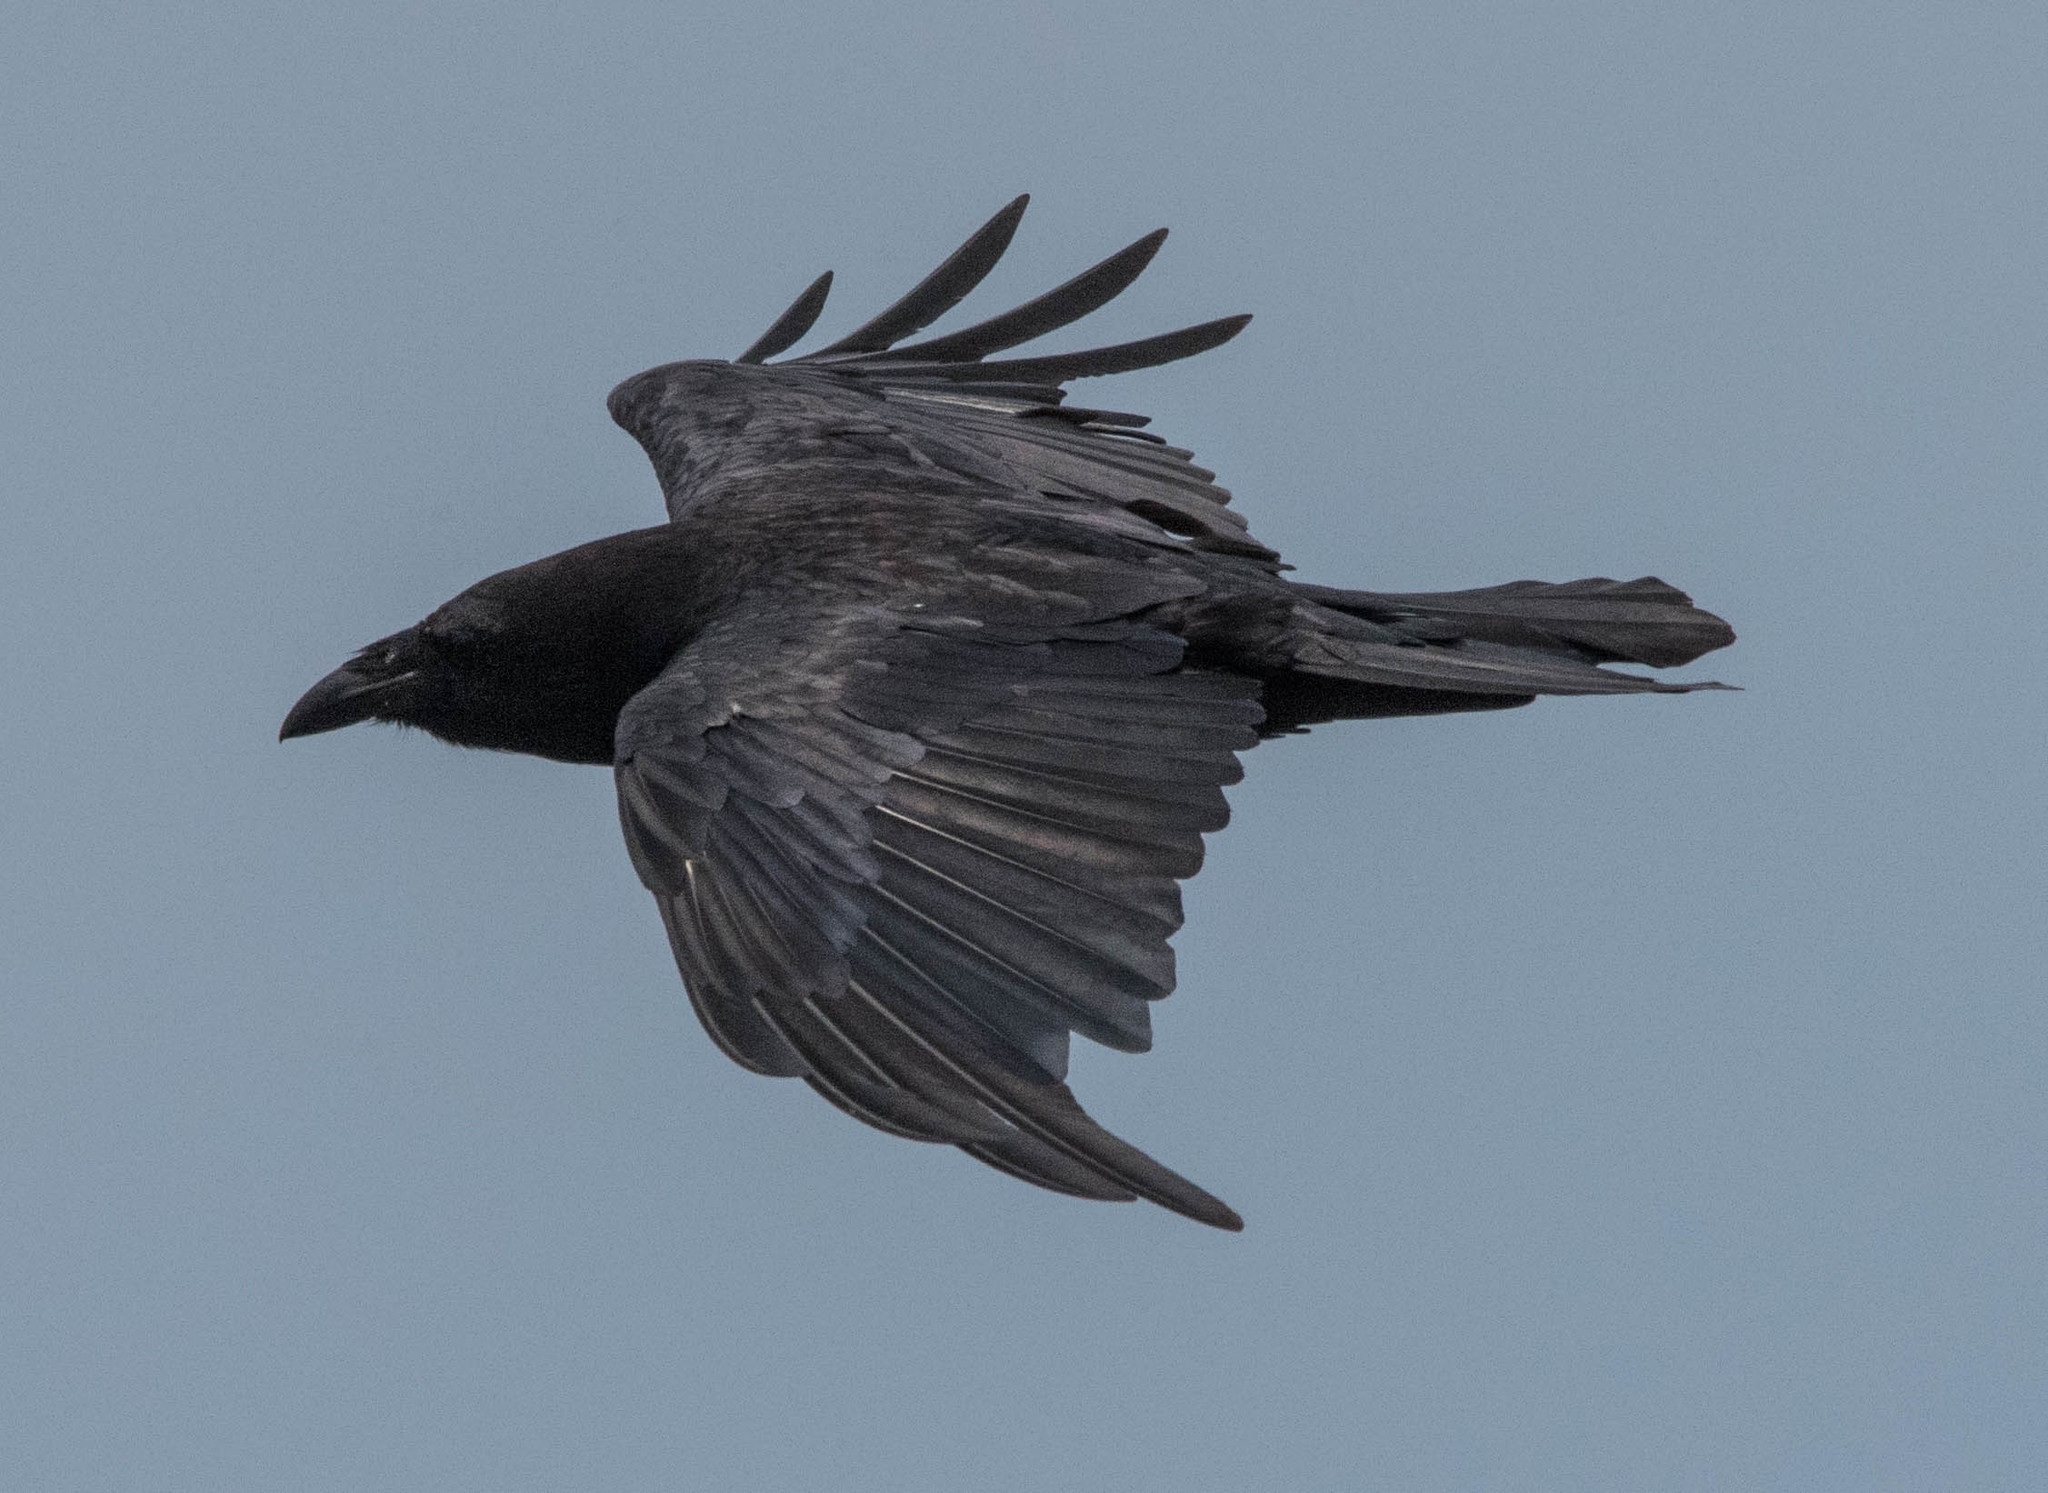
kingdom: Animalia
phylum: Chordata
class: Aves
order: Passeriformes
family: Corvidae
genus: Corvus
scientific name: Corvus corax
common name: Common raven
